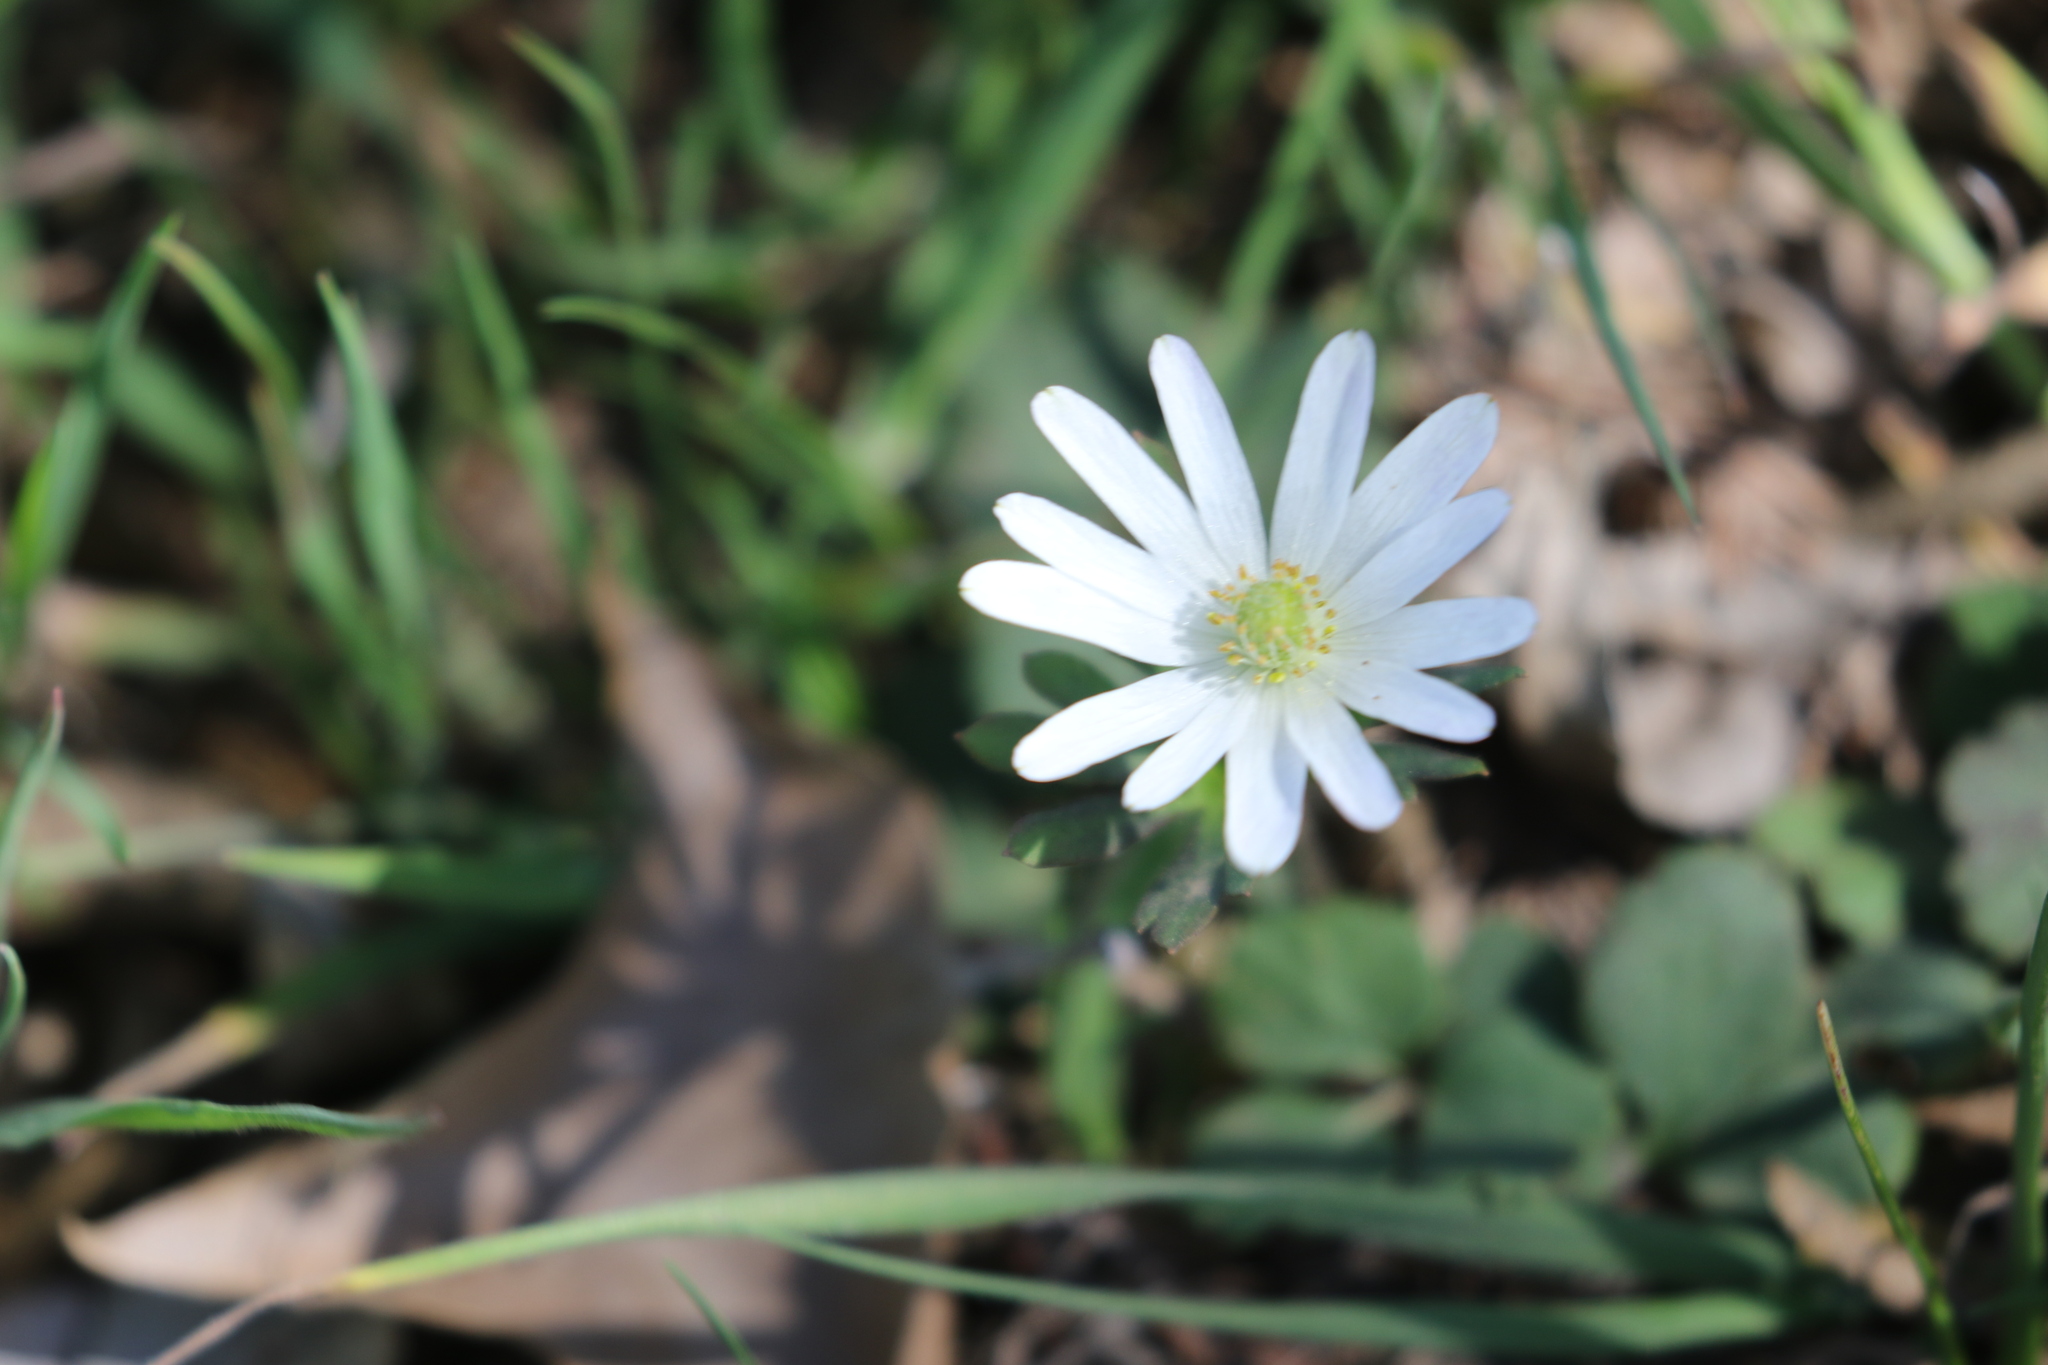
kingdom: Plantae
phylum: Tracheophyta
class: Magnoliopsida
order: Ranunculales
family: Ranunculaceae
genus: Anemone
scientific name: Anemone berlandieri
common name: Ten-petal anemone
